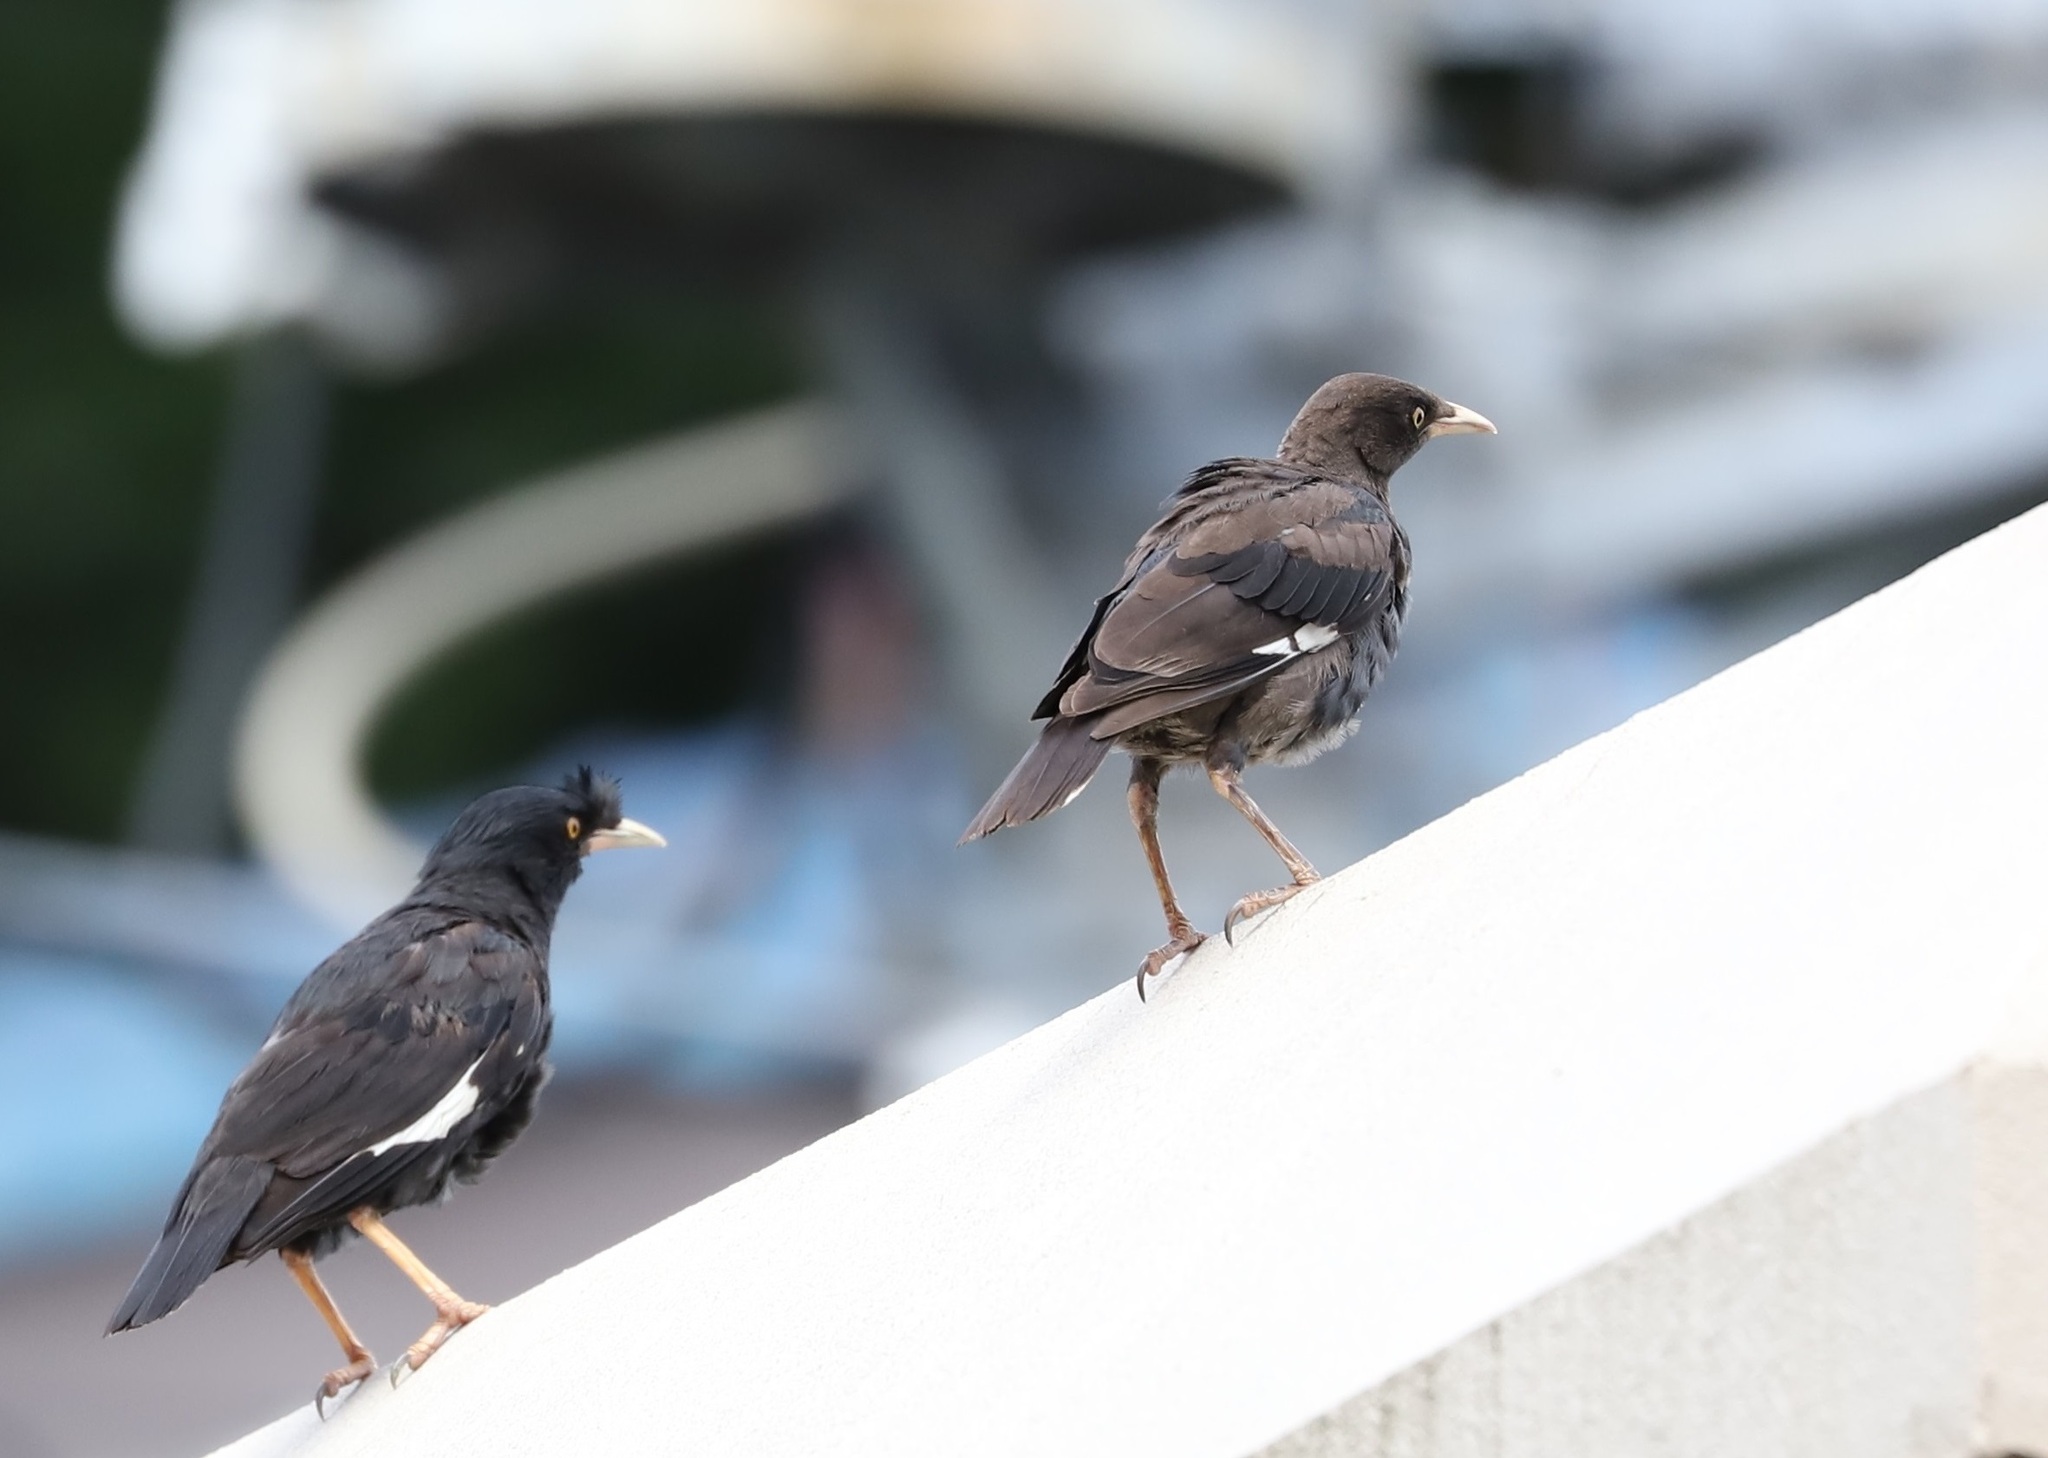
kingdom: Animalia
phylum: Chordata
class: Aves
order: Passeriformes
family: Sturnidae
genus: Acridotheres
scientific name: Acridotheres cristatellus
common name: Crested myna
